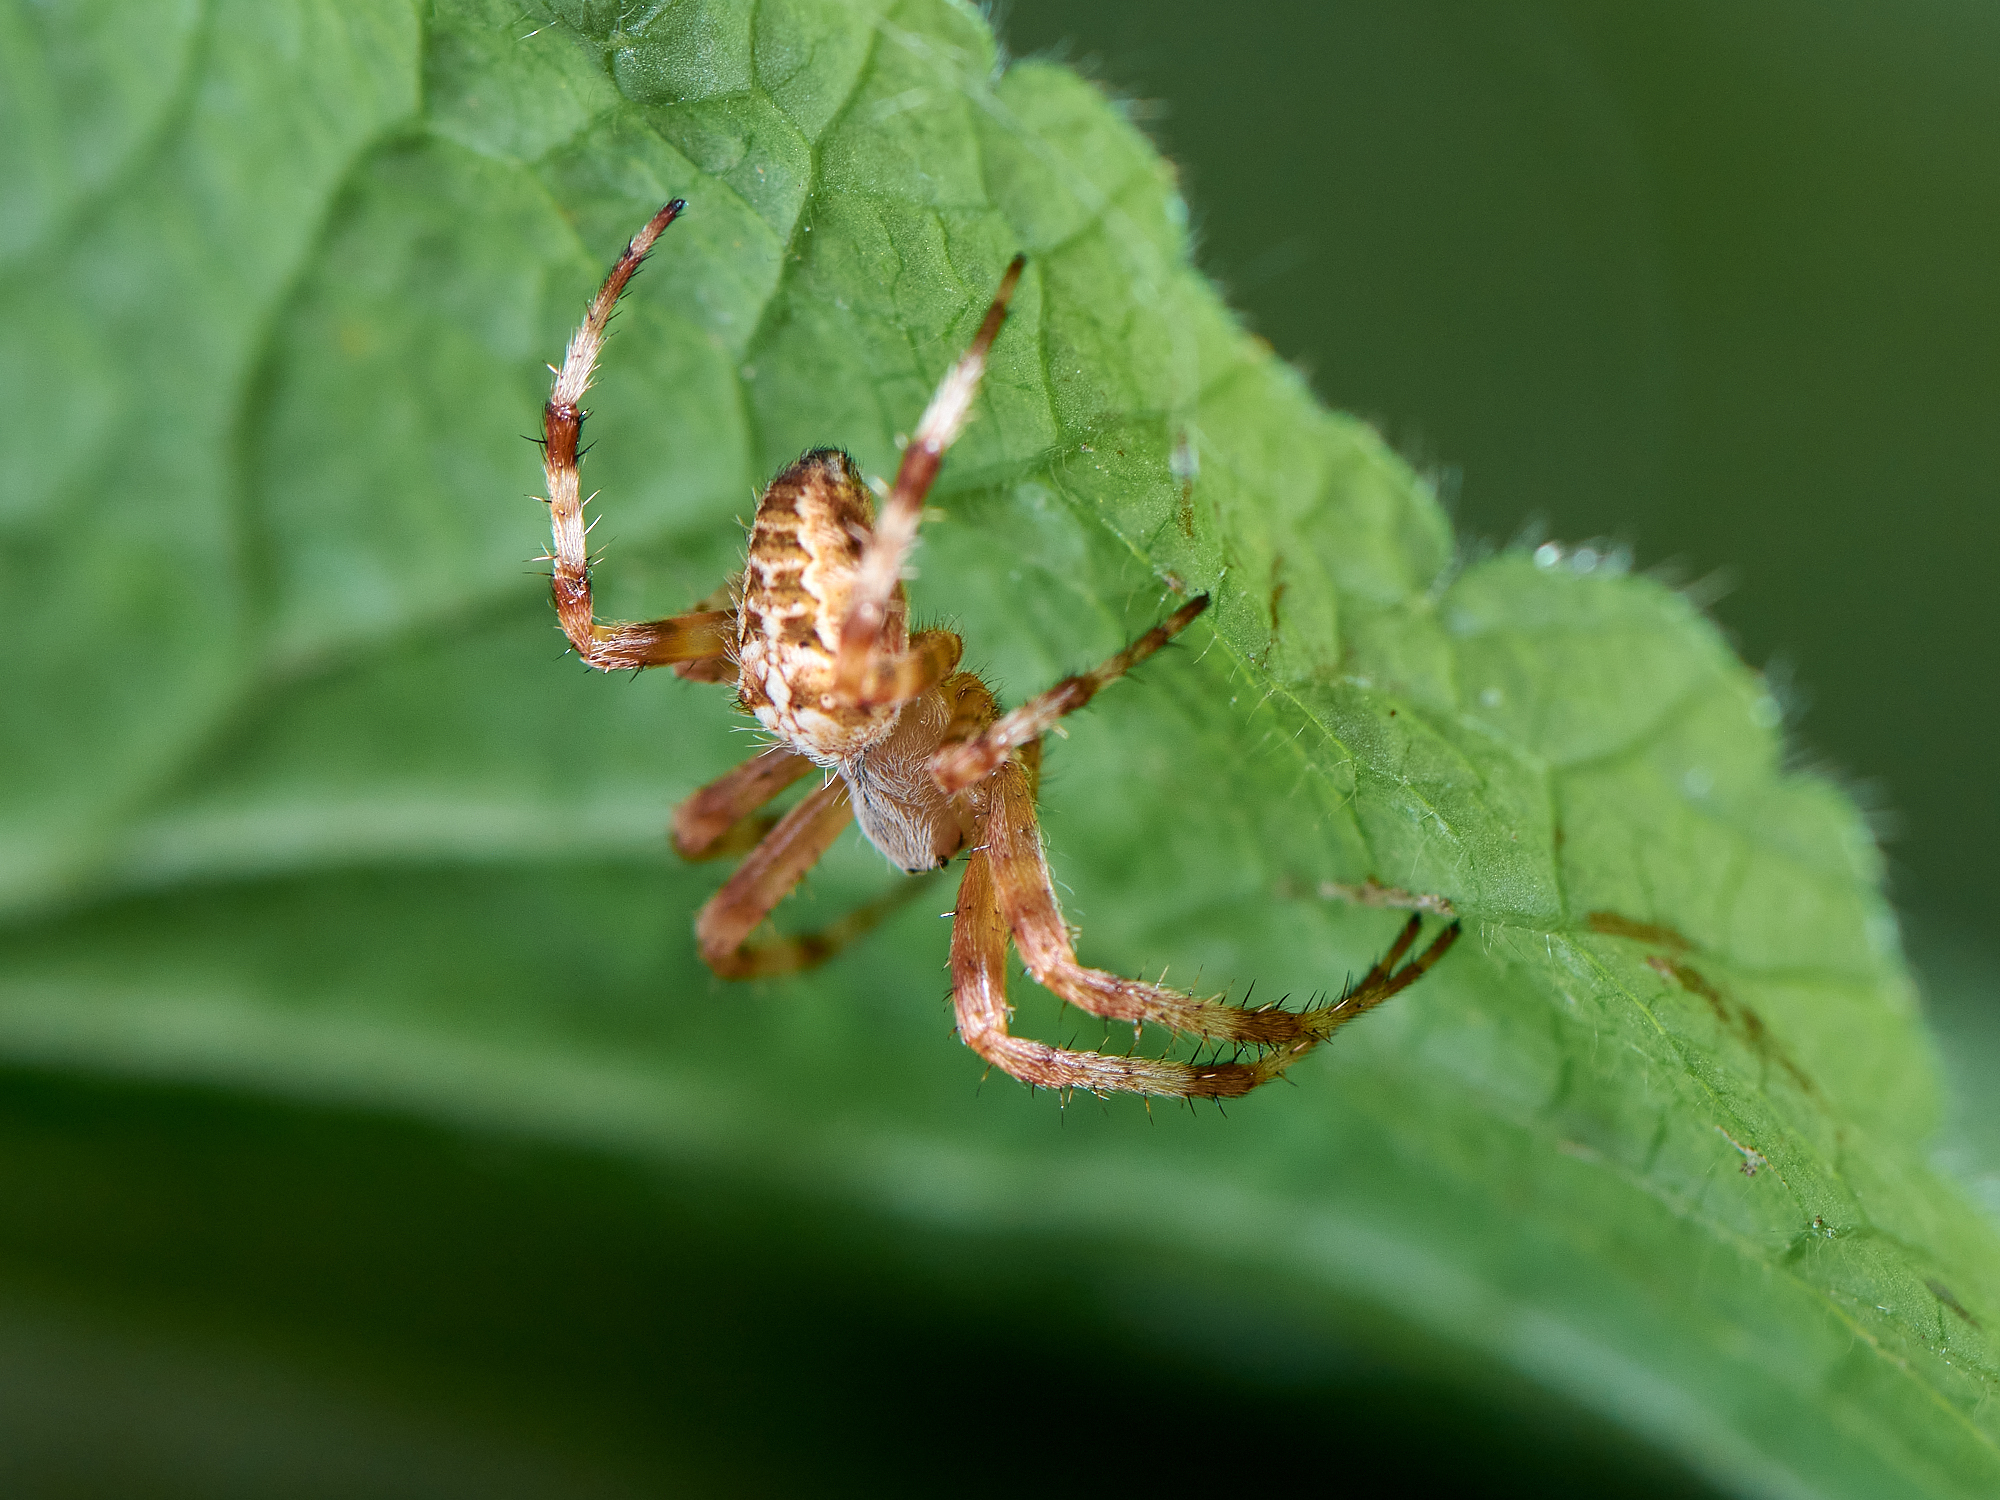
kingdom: Animalia
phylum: Arthropoda
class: Arachnida
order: Araneae
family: Araneidae
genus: Araneus
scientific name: Araneus diadematus
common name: Cross orbweaver
